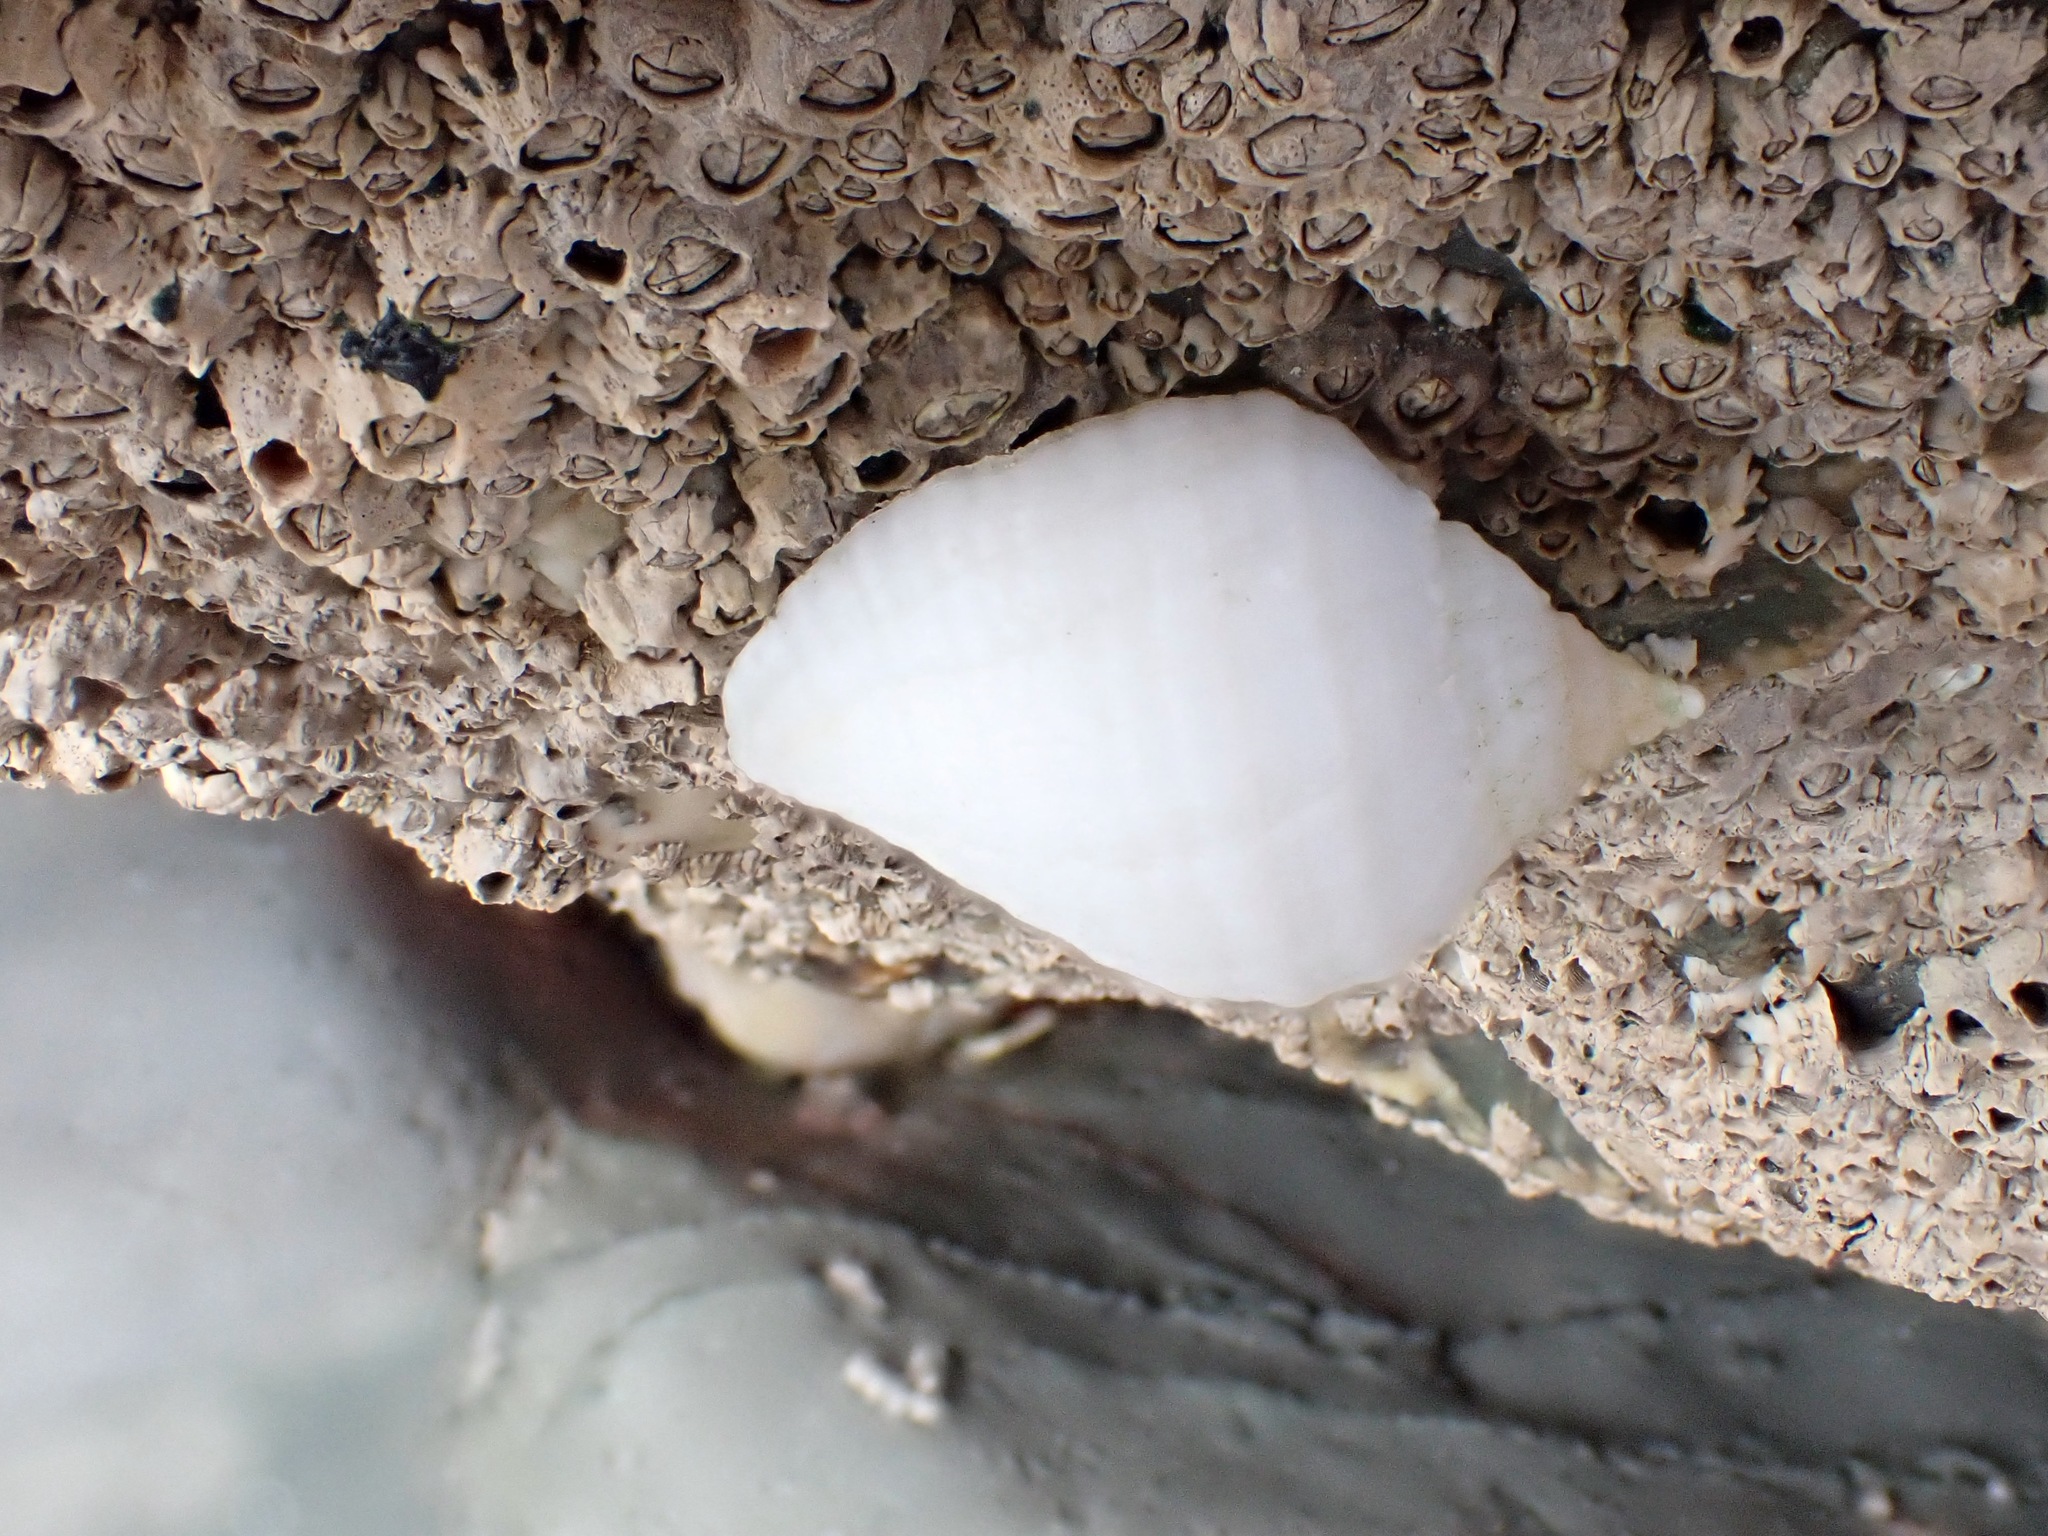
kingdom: Animalia
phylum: Mollusca
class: Gastropoda
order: Neogastropoda
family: Muricidae
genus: Nucella
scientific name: Nucella lapillus
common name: Dog whelk
